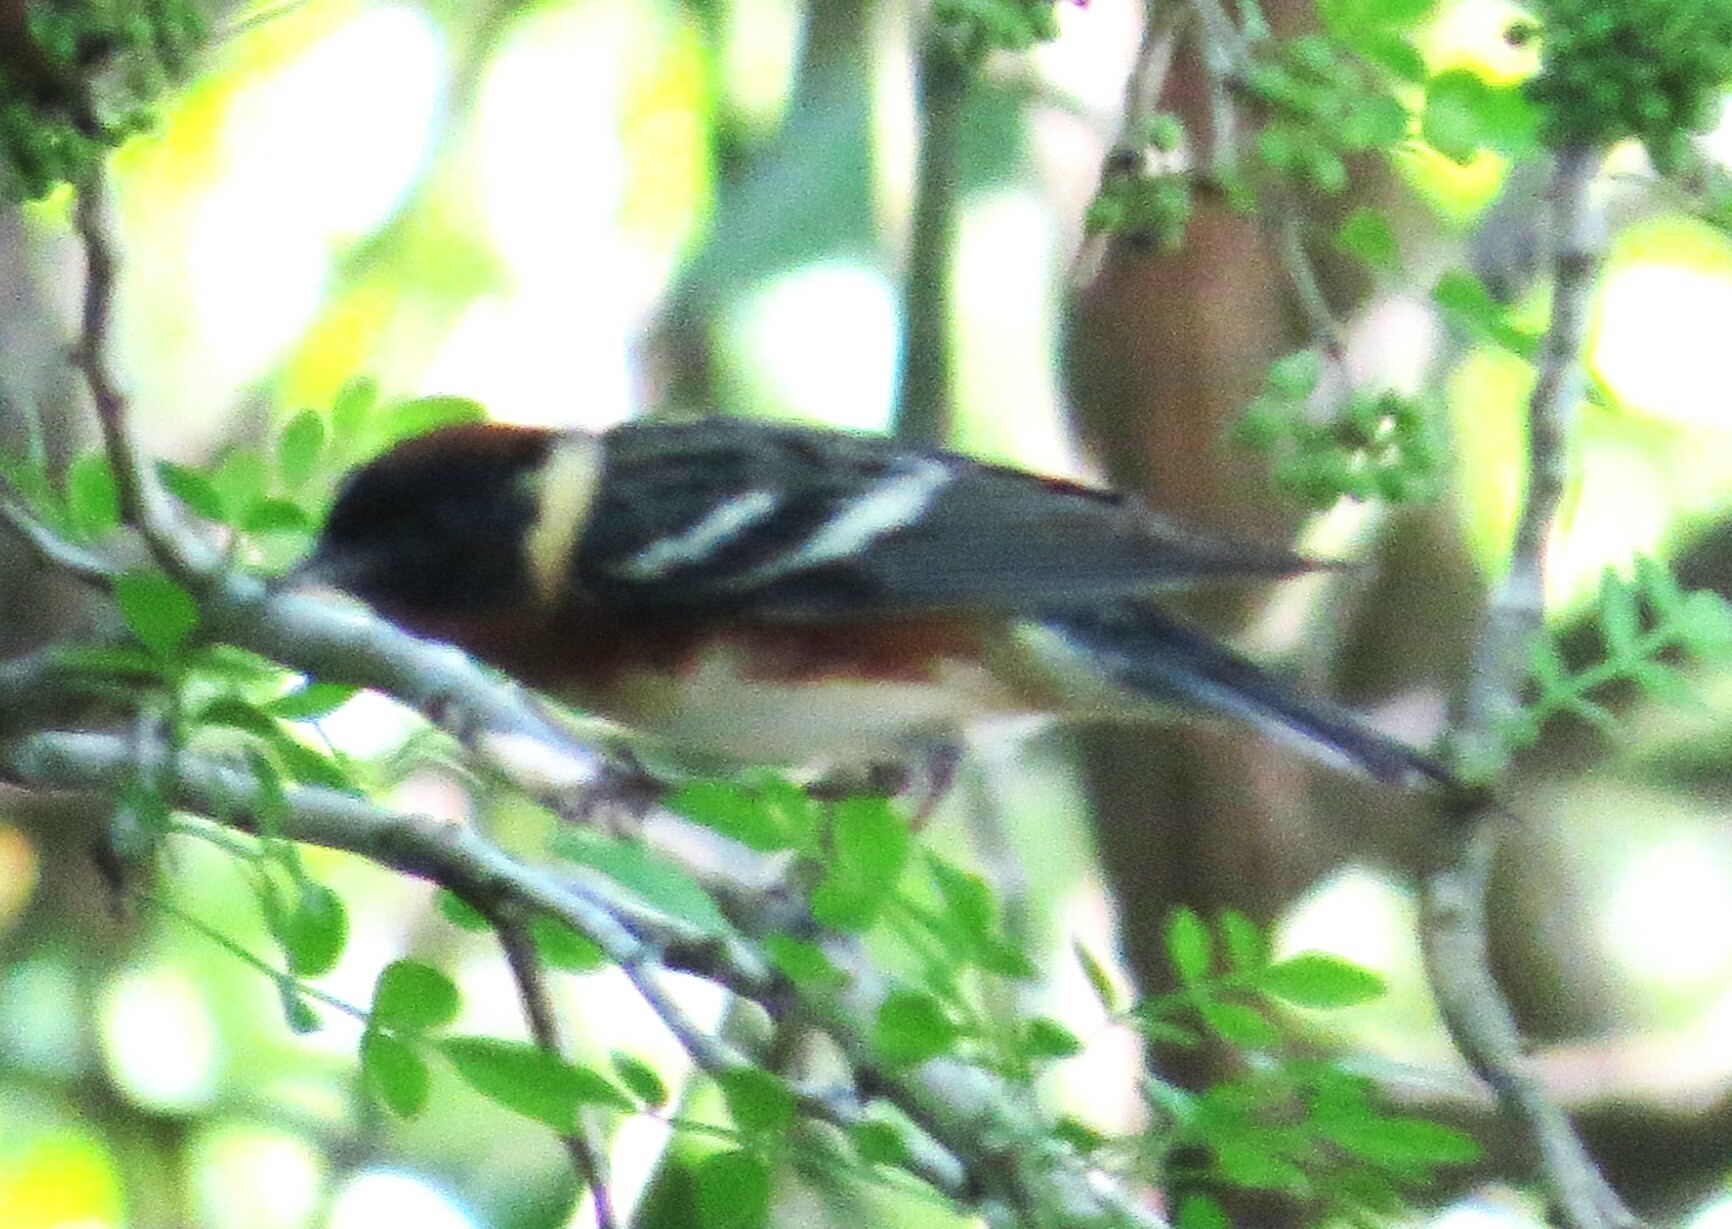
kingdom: Animalia
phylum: Chordata
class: Aves
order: Passeriformes
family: Parulidae
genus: Setophaga
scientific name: Setophaga castanea
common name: Bay-breasted warbler
